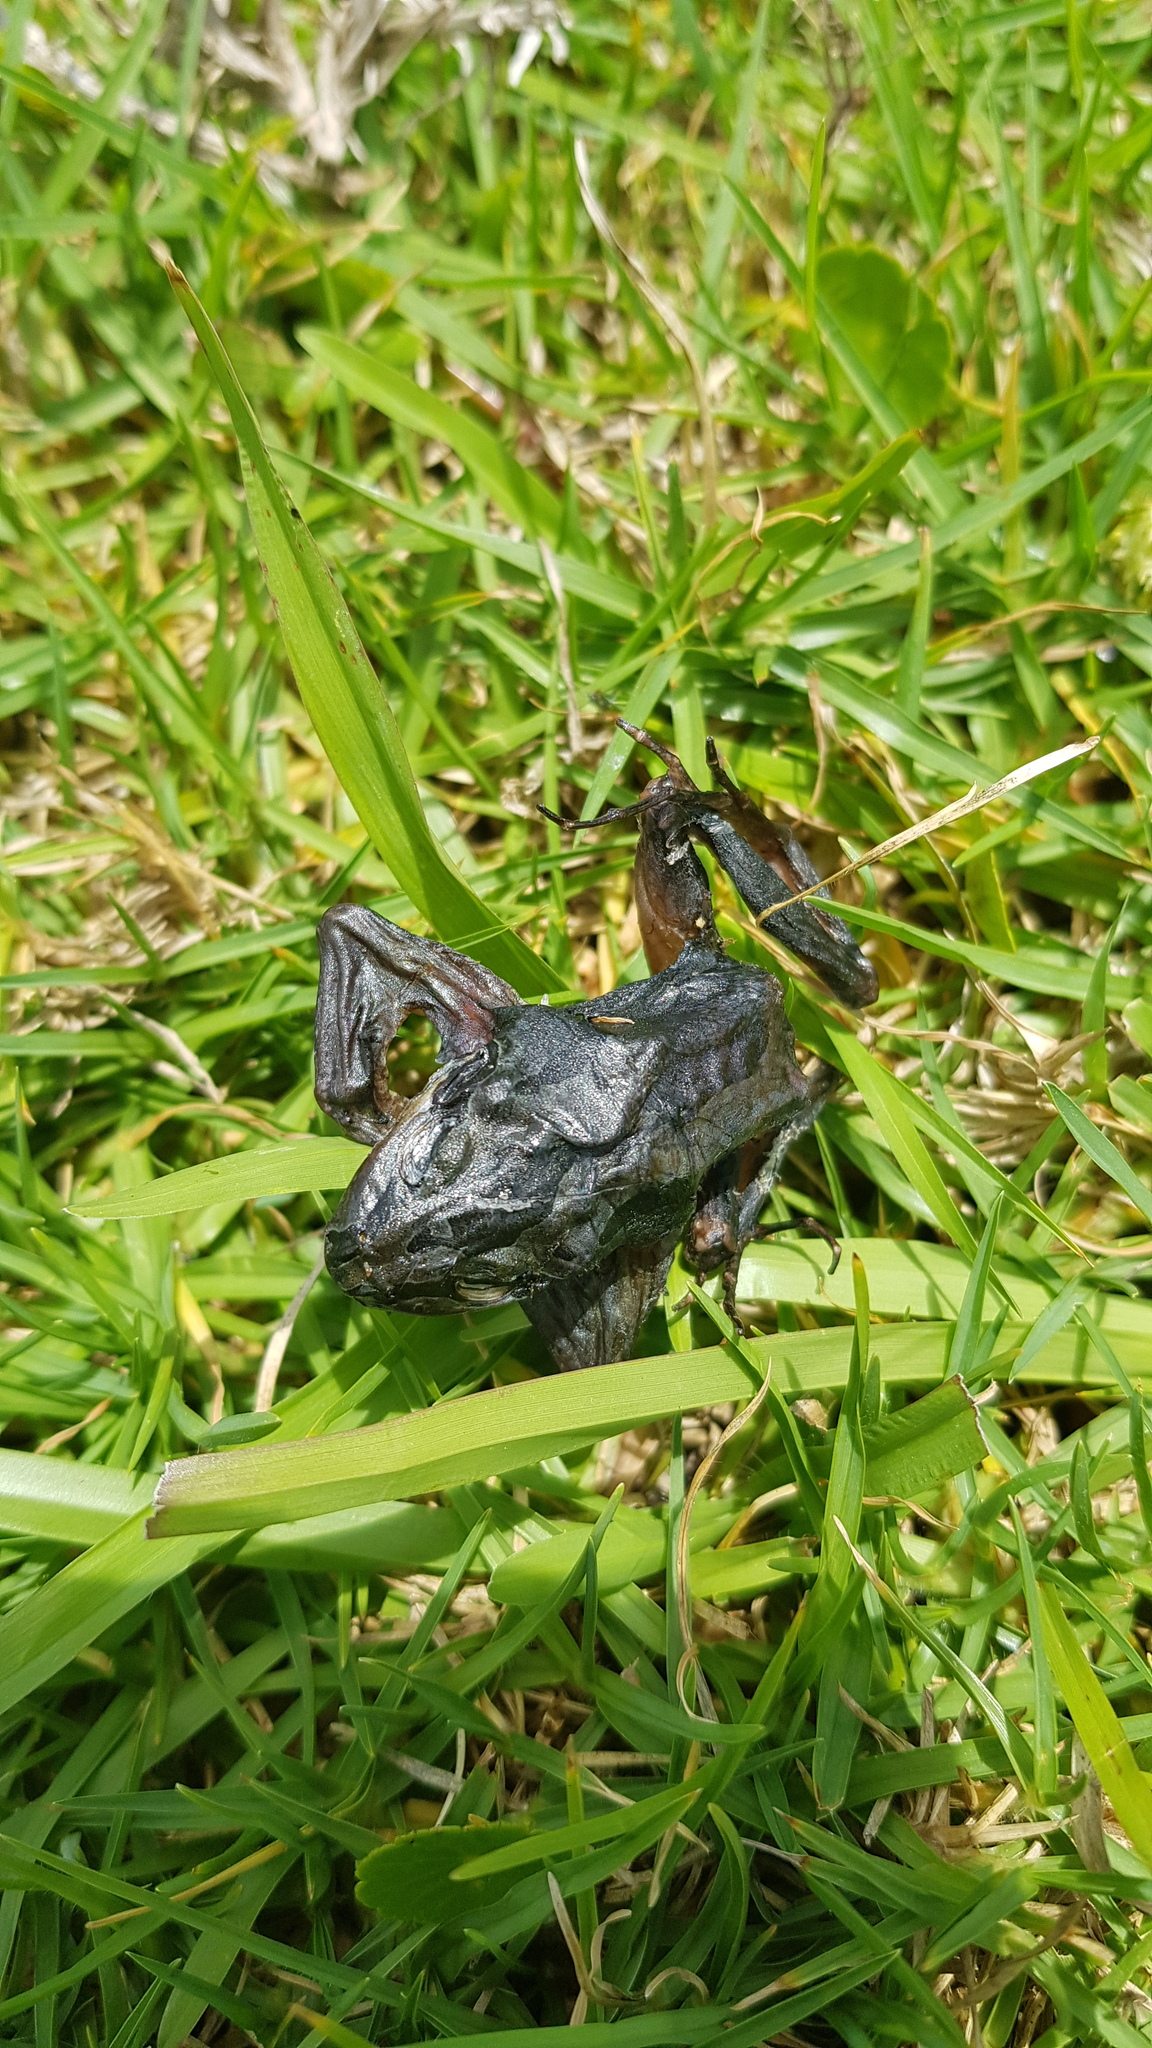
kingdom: Animalia
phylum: Chordata
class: Amphibia
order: Anura
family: Limnodynastidae
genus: Limnodynastes
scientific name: Limnodynastes peronii
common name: Brown frog
